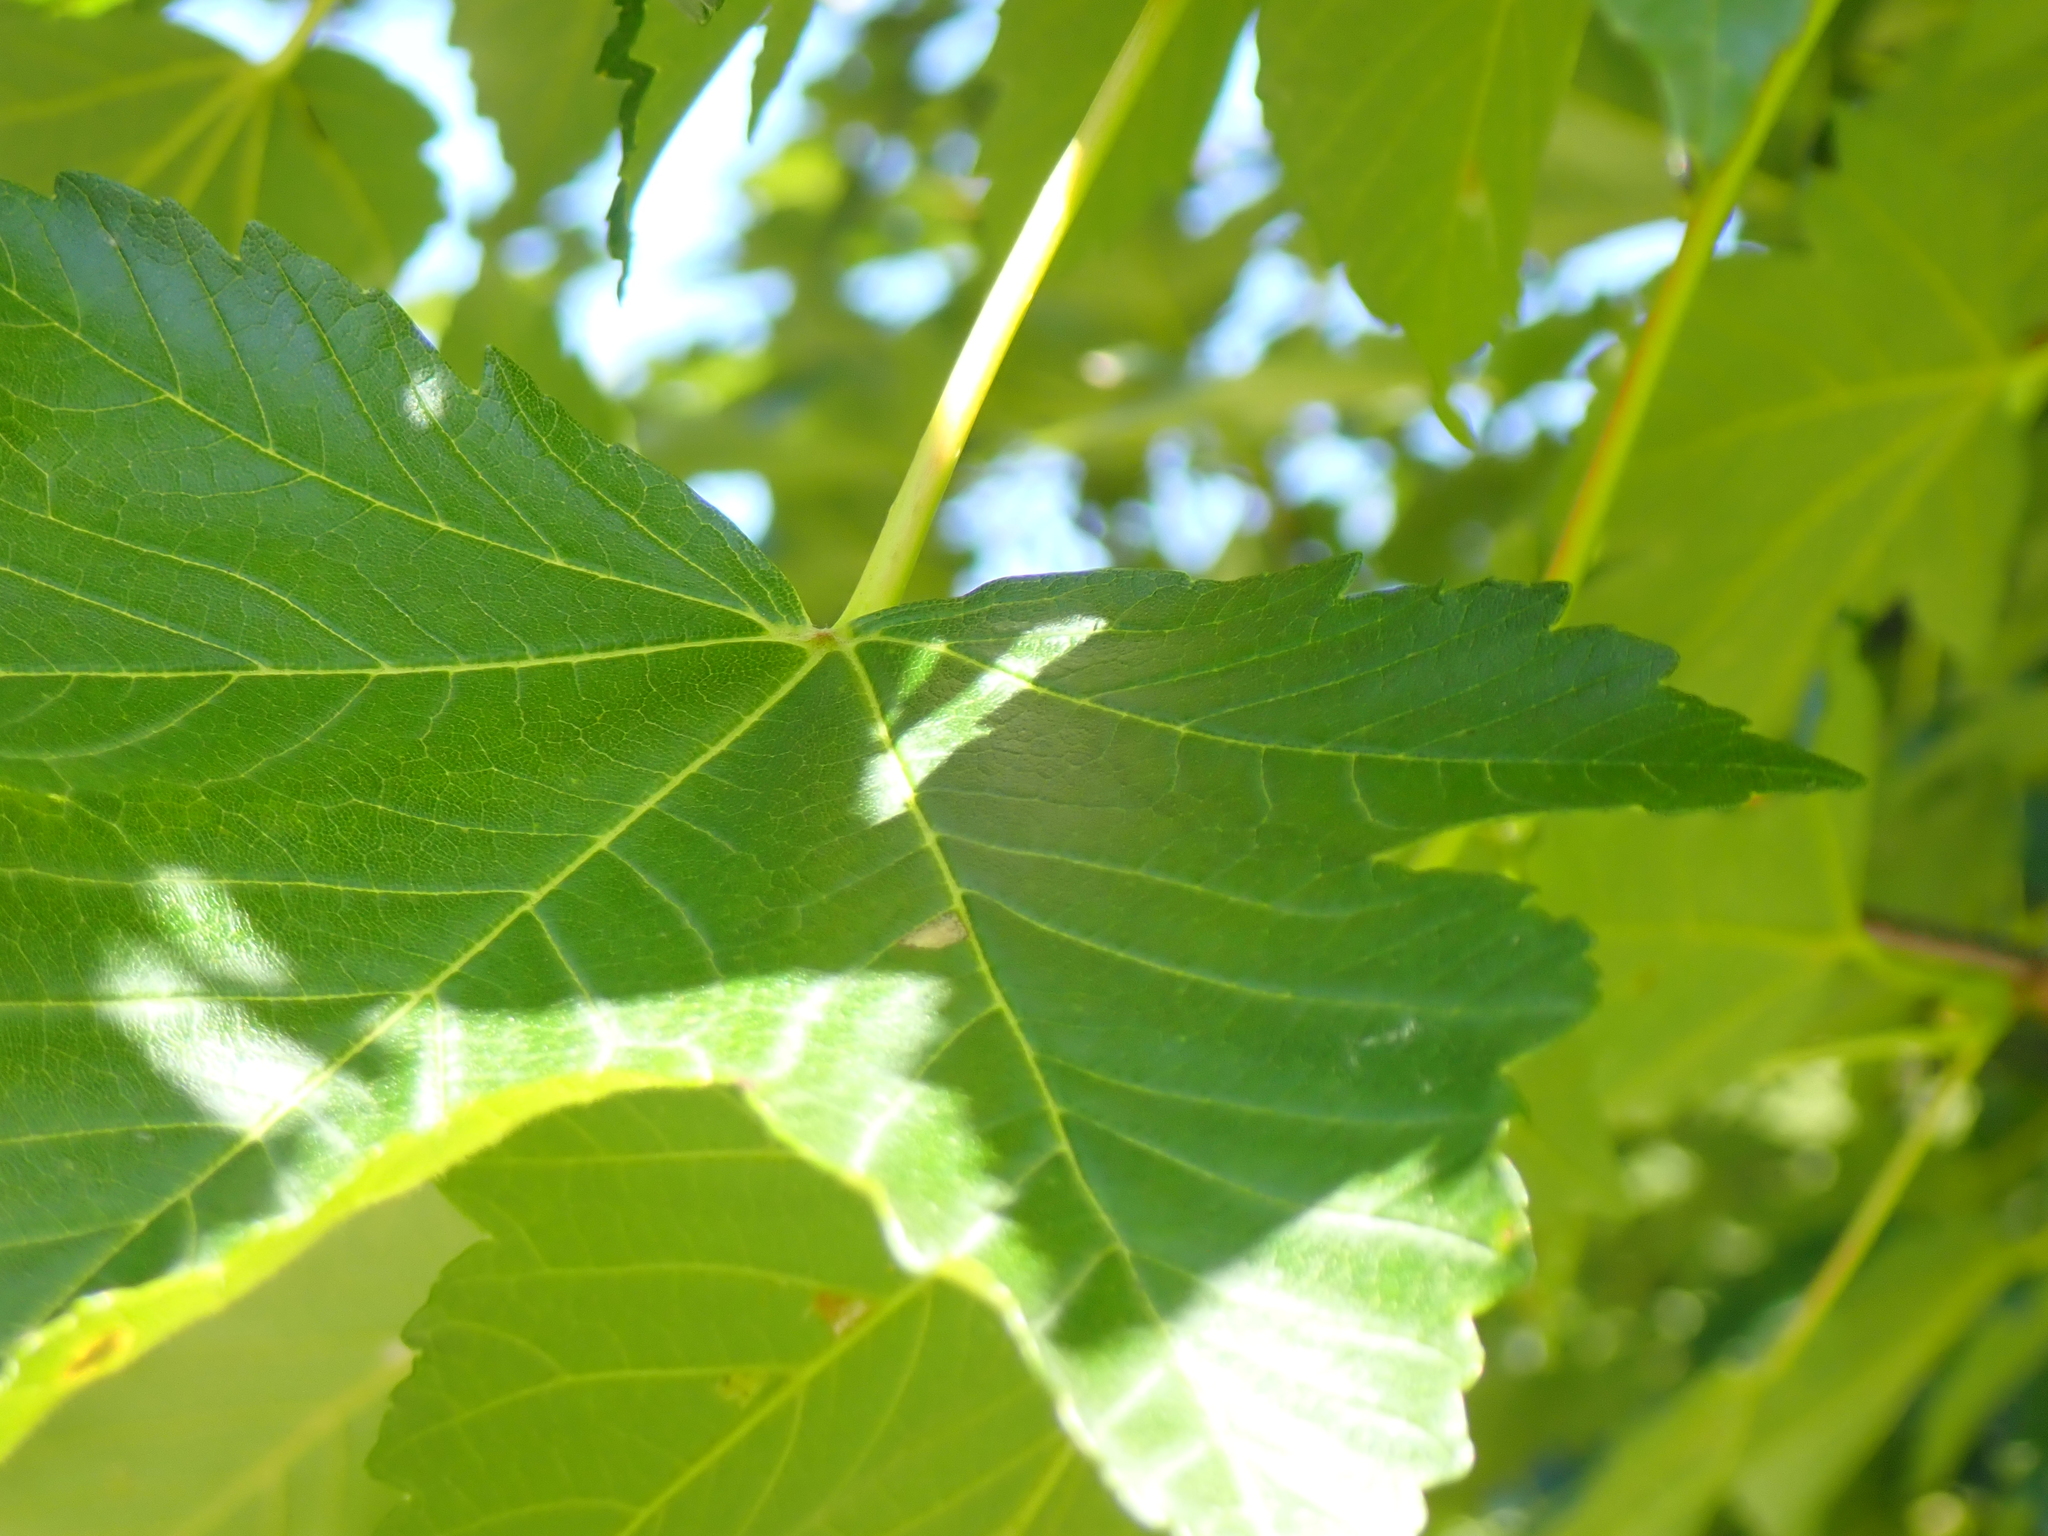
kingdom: Plantae
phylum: Tracheophyta
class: Magnoliopsida
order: Sapindales
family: Sapindaceae
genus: Acer
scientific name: Acer pseudoplatanus
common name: Sycamore
